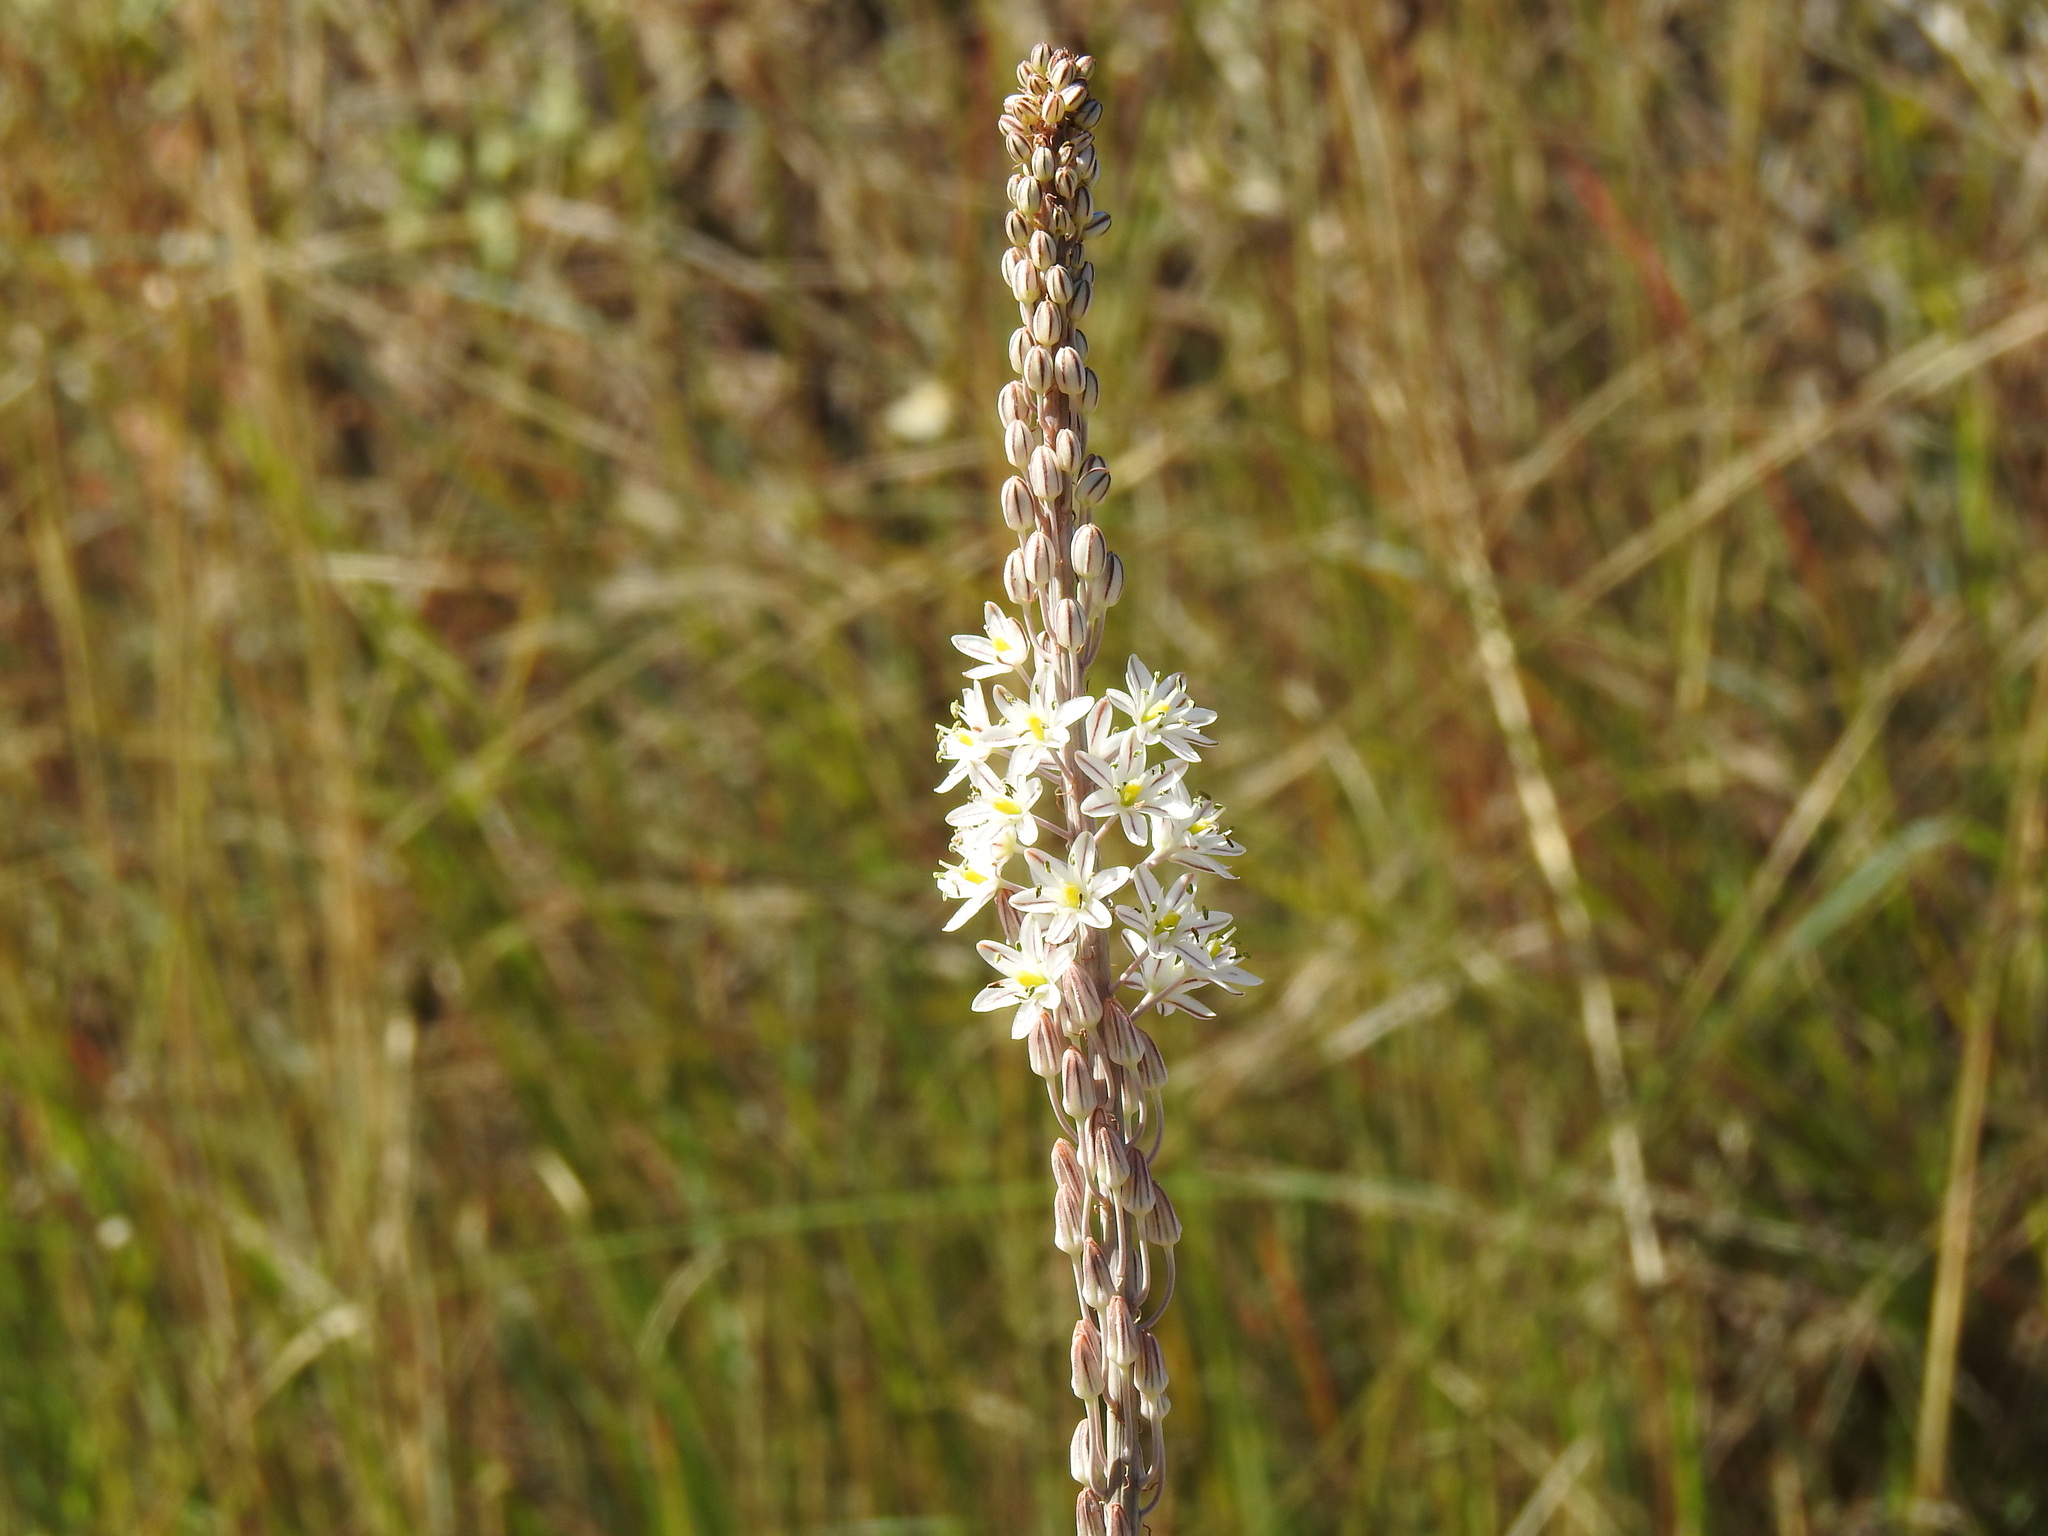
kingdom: Plantae
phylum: Tracheophyta
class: Liliopsida
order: Asparagales
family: Asparagaceae
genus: Drimia
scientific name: Drimia maritima
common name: Maritime squill
